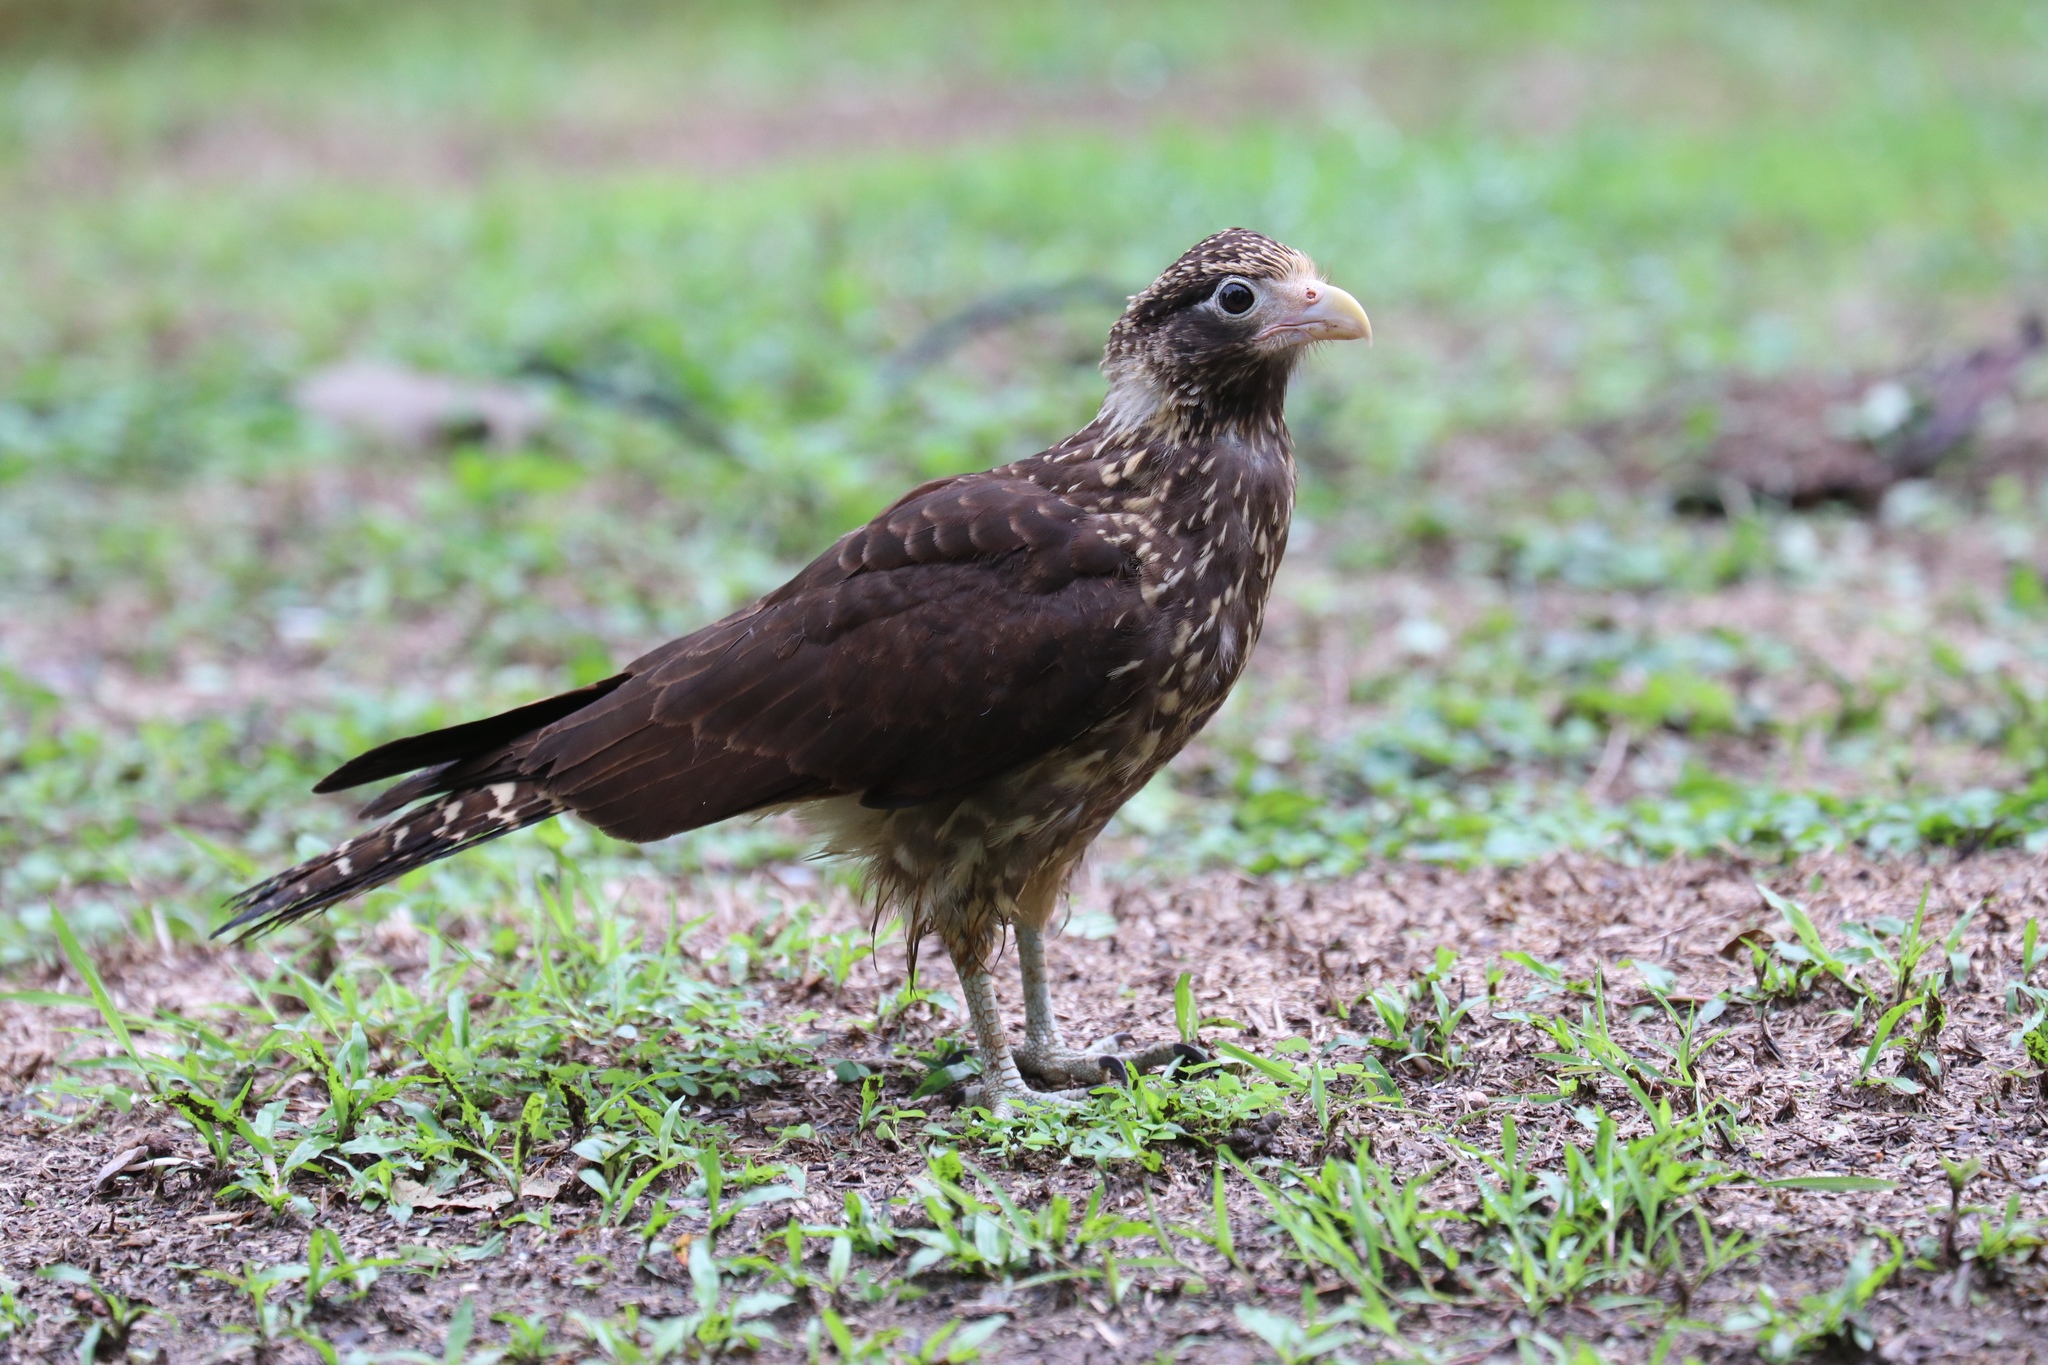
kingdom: Animalia
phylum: Chordata
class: Aves
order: Falconiformes
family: Falconidae
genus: Daptrius
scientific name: Daptrius
